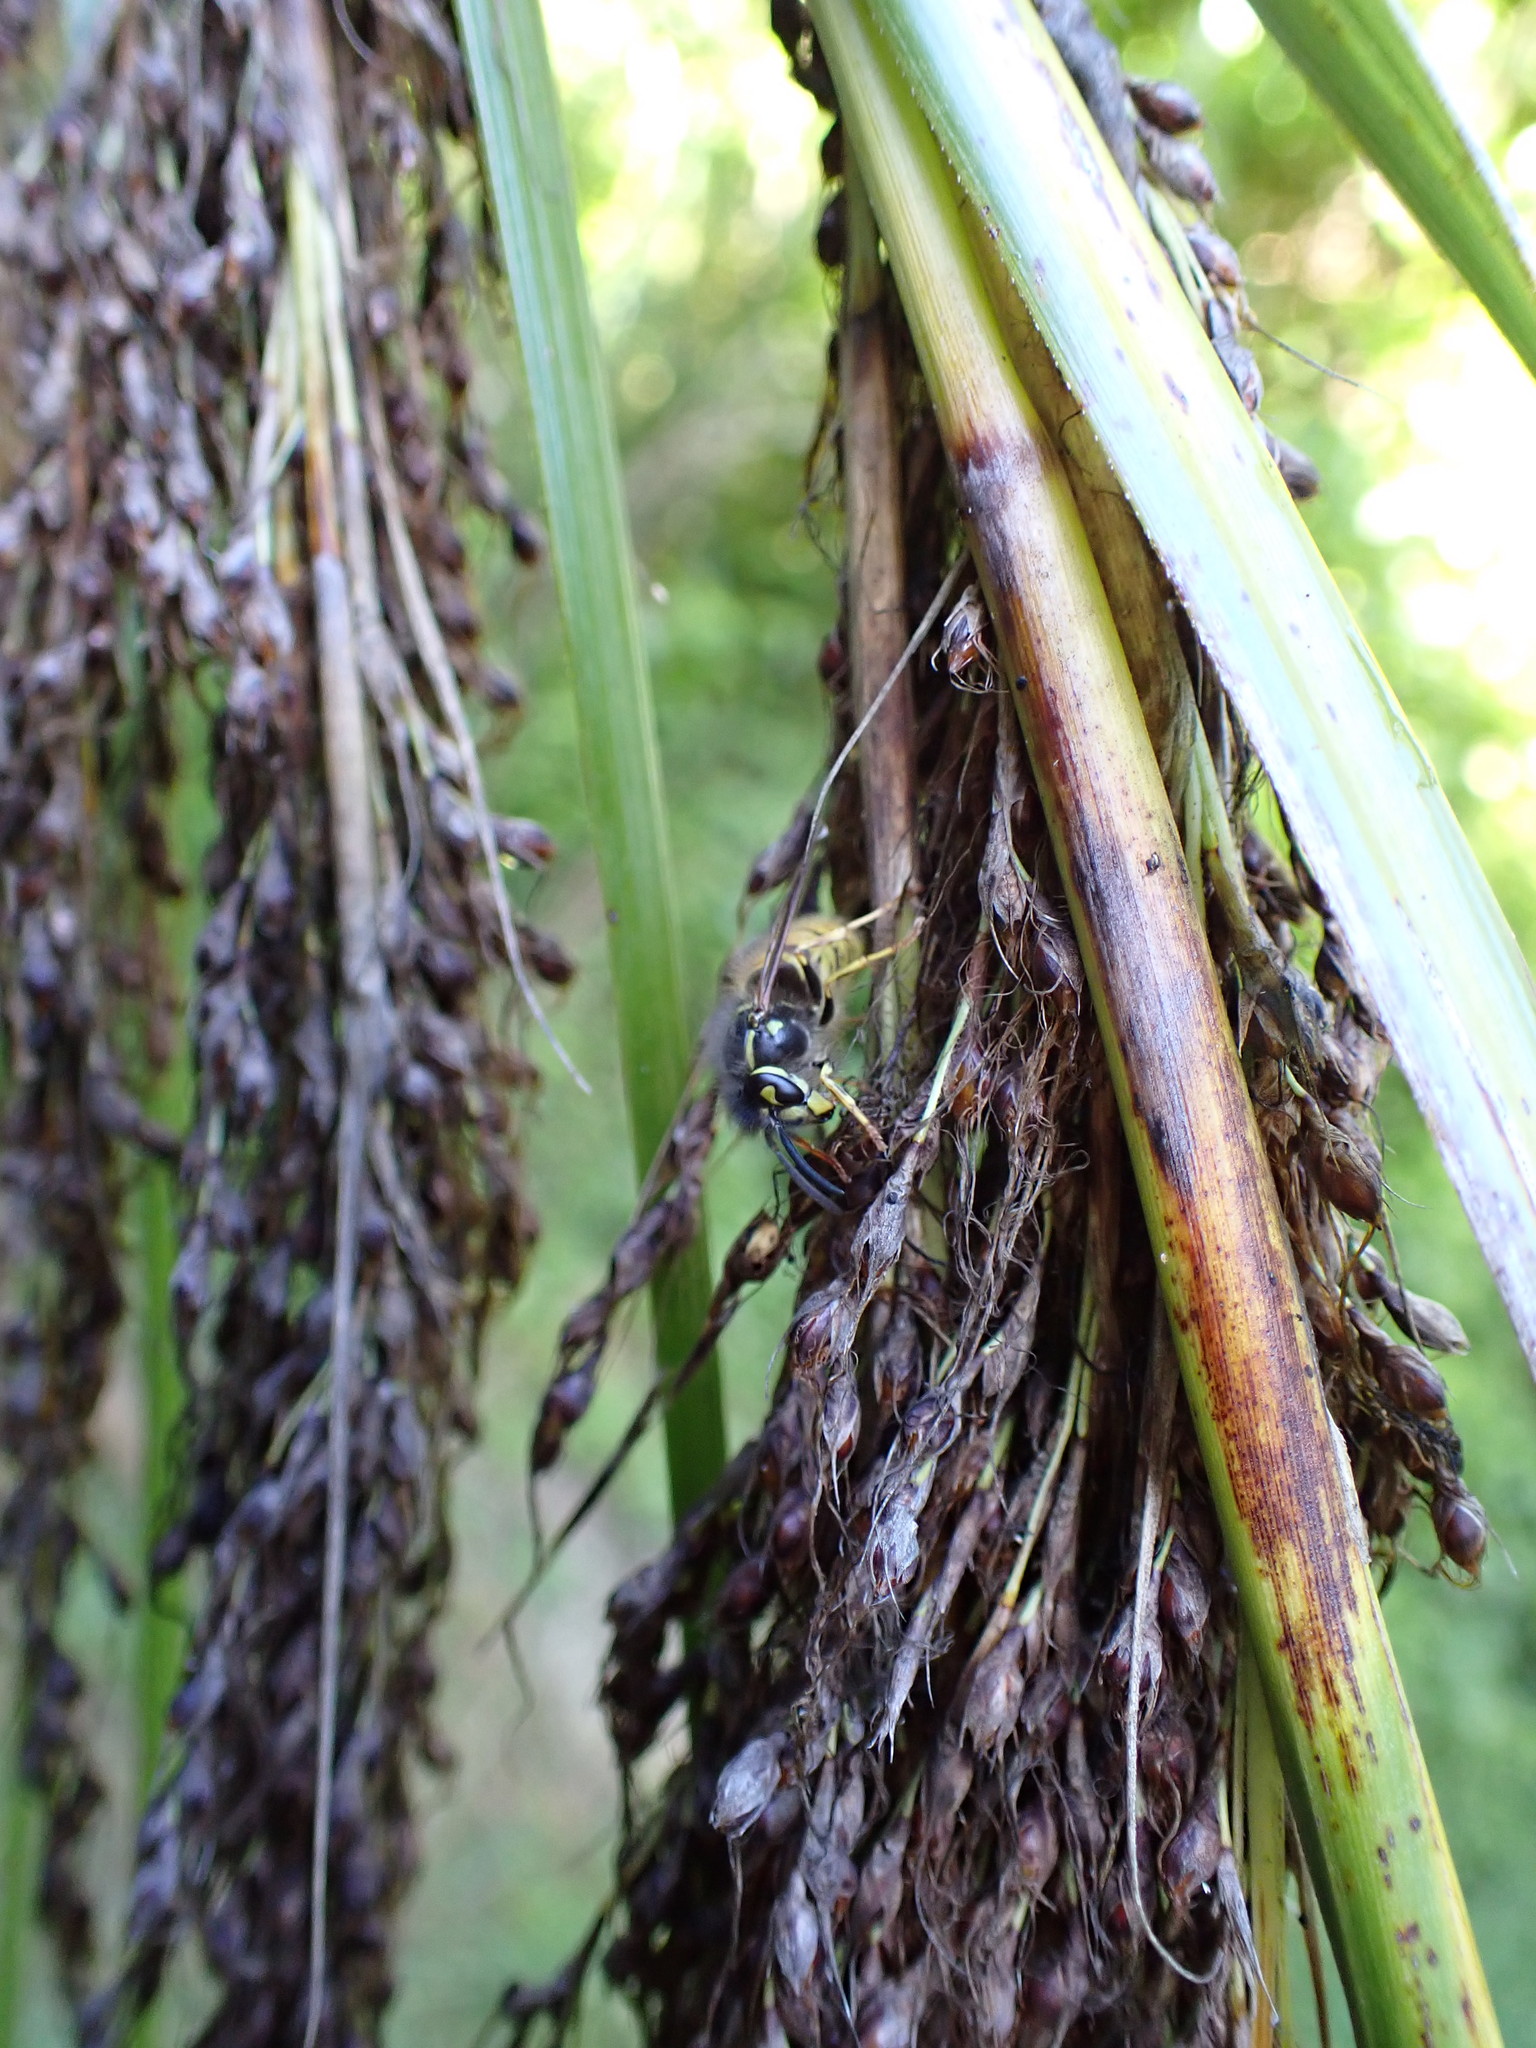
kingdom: Animalia
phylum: Arthropoda
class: Insecta
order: Hymenoptera
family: Vespidae
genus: Vespula
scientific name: Vespula vulgaris
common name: Common wasp
